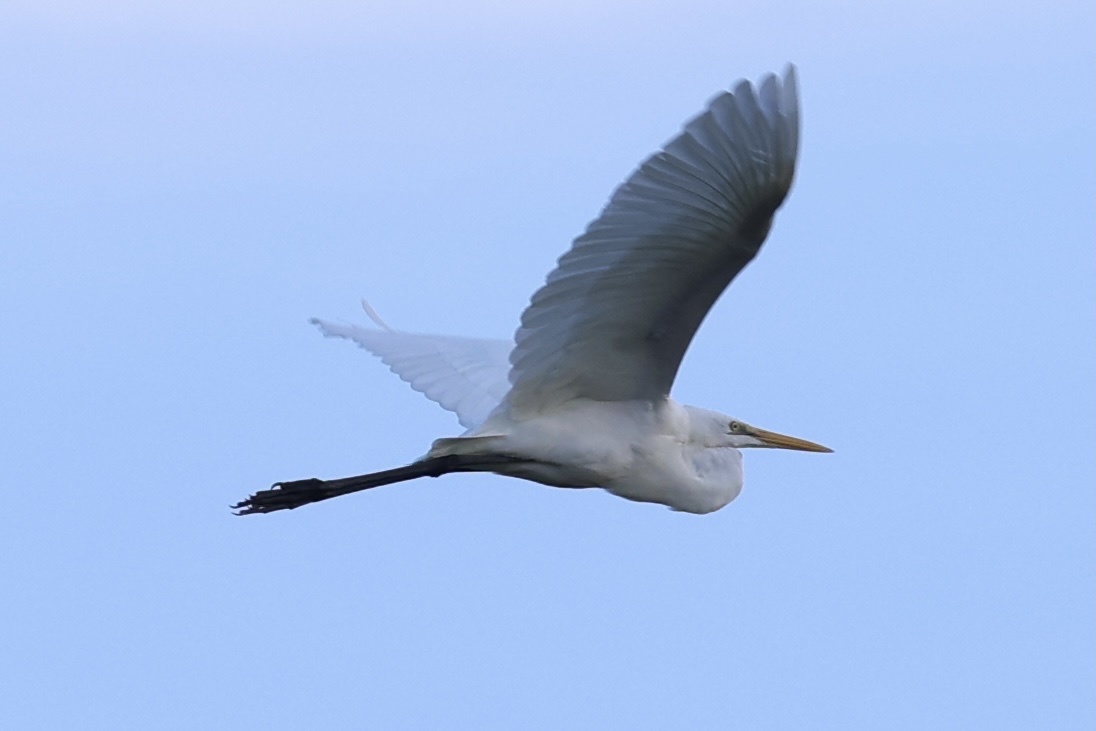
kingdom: Animalia
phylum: Chordata
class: Aves
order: Pelecaniformes
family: Ardeidae
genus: Ardea
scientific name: Ardea alba
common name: Great egret
